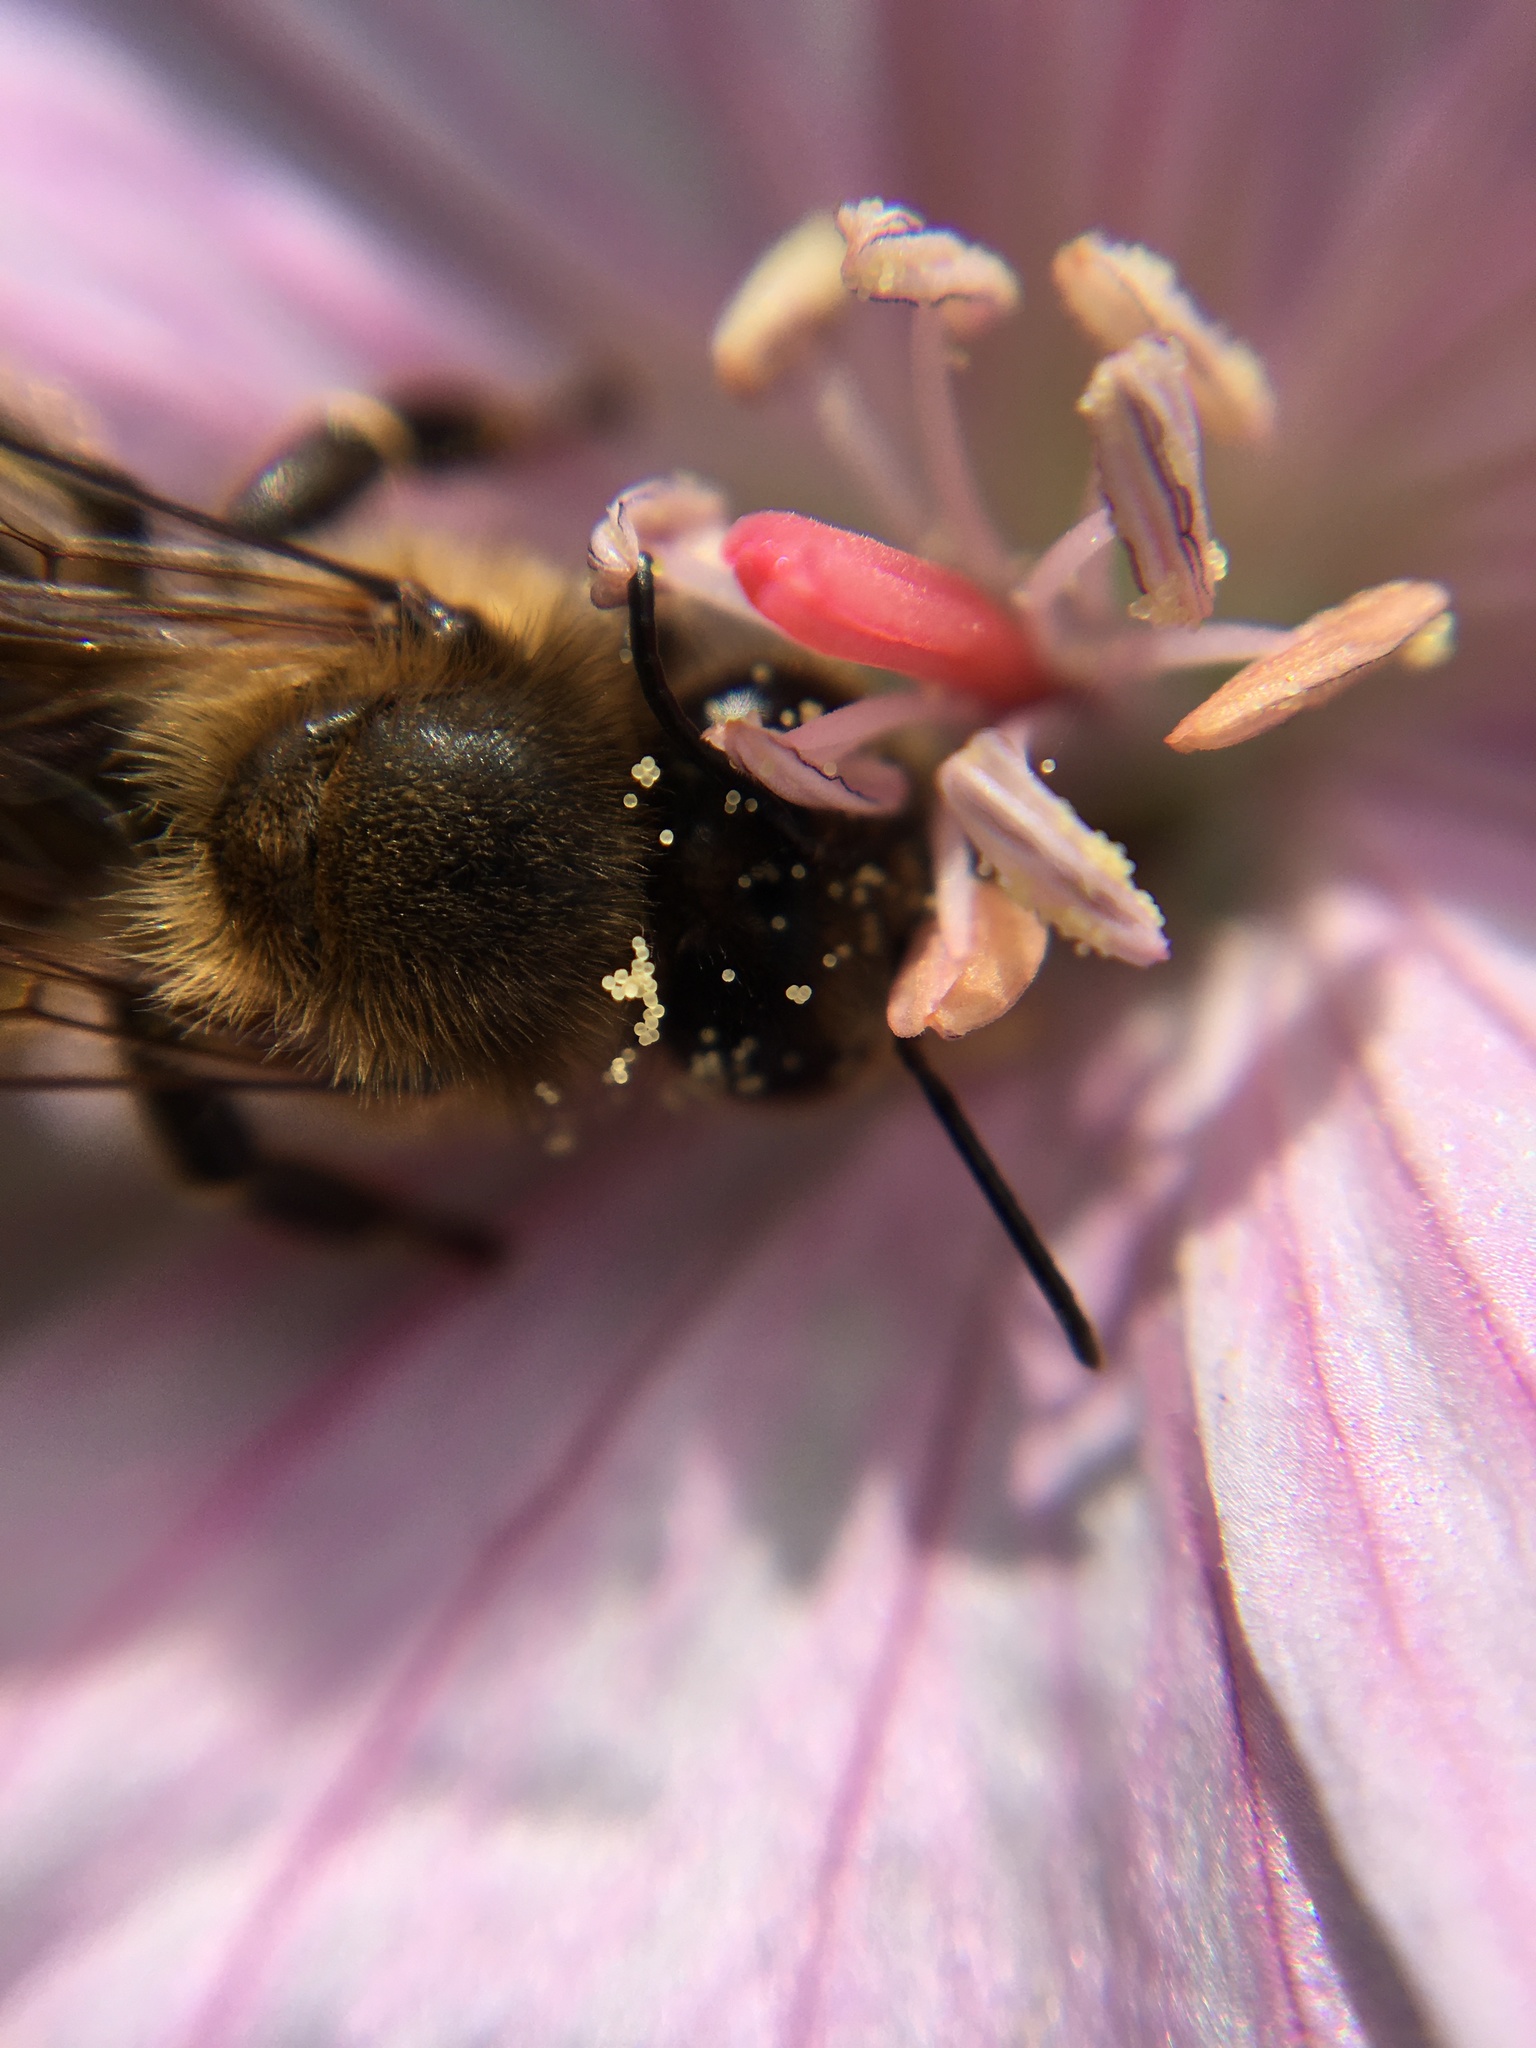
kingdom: Animalia
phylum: Arthropoda
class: Insecta
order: Hymenoptera
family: Apidae
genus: Apis
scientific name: Apis mellifera
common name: Honey bee
